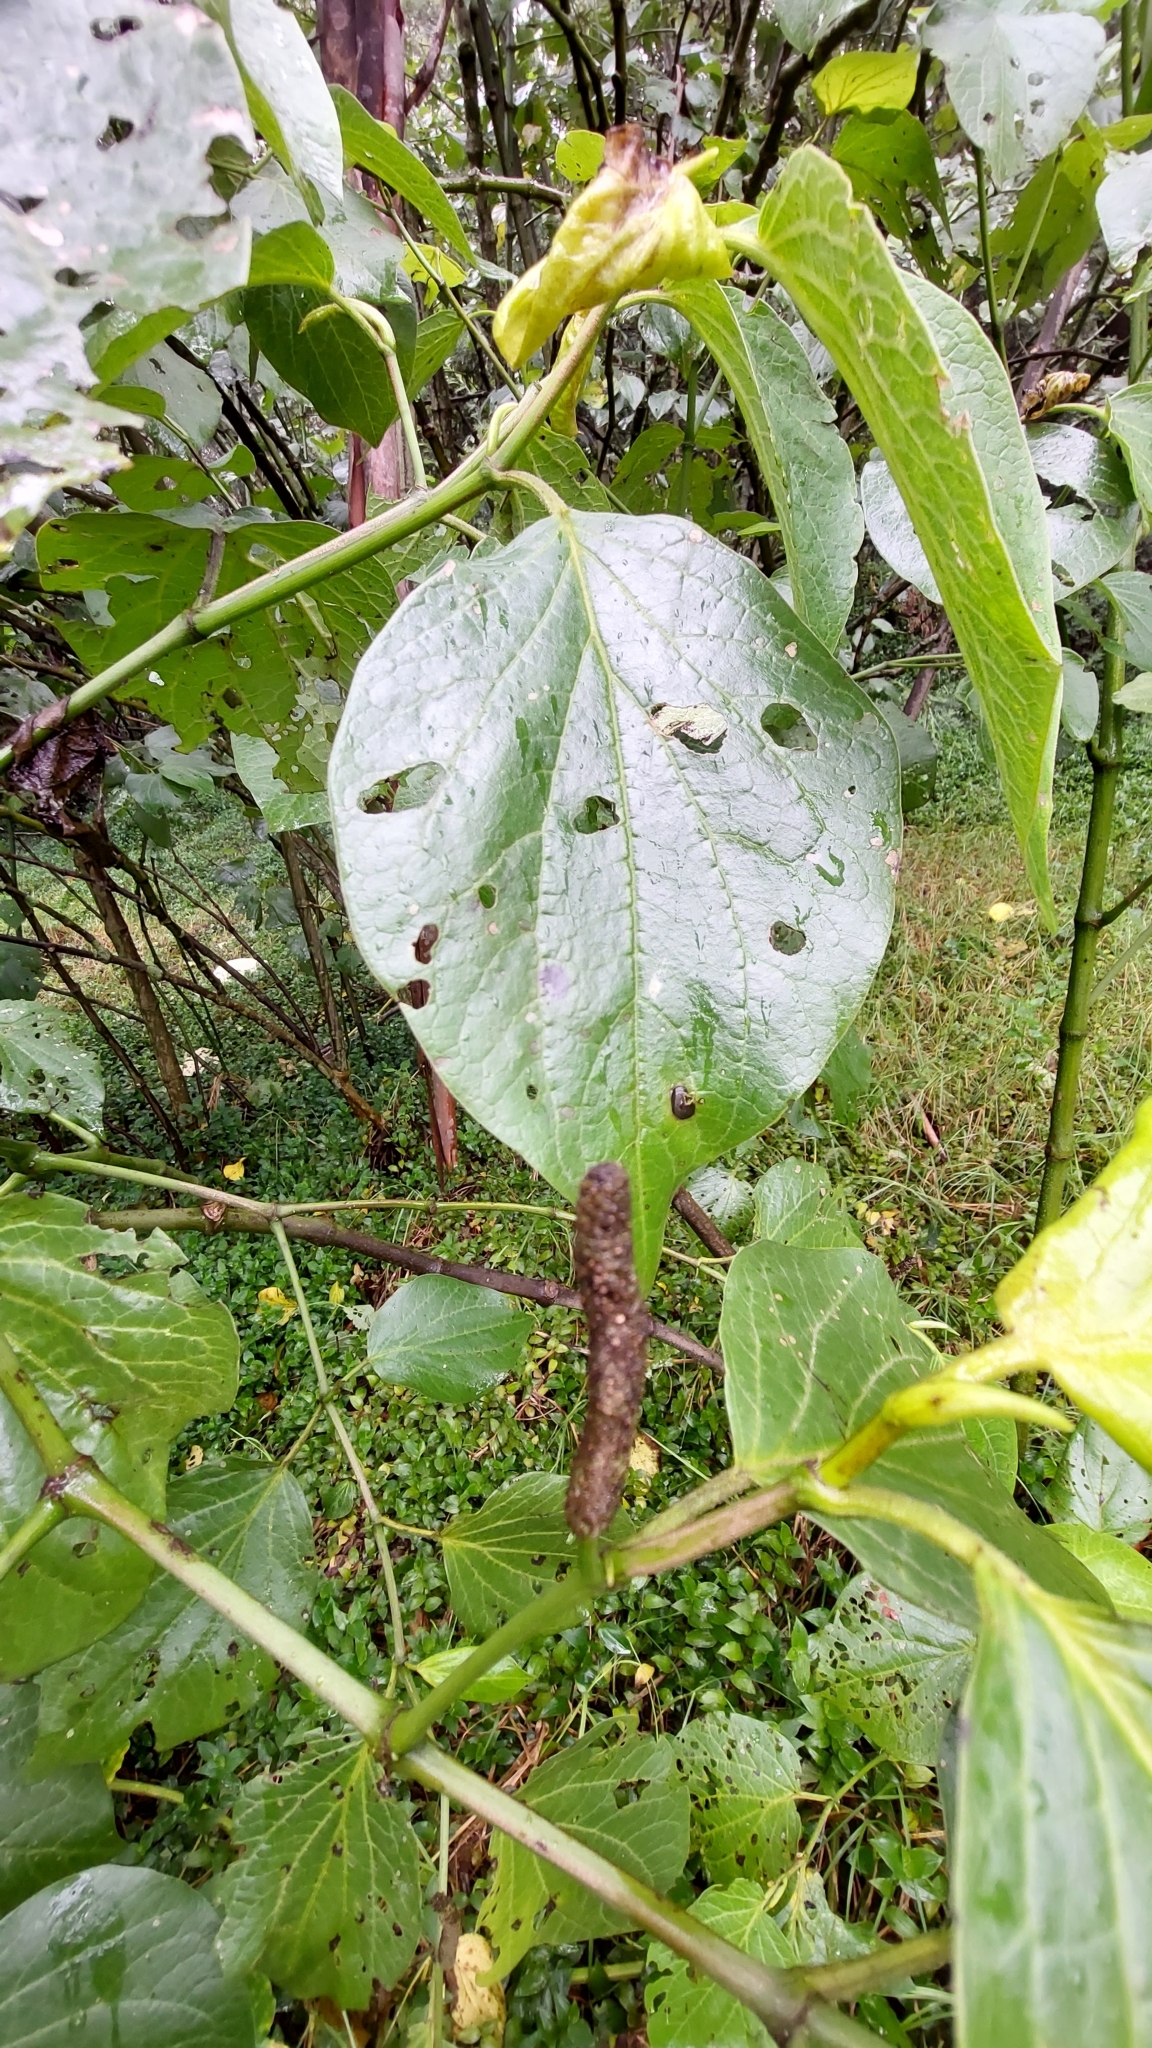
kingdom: Plantae
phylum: Tracheophyta
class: Magnoliopsida
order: Piperales
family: Piperaceae
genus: Piper
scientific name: Piper barbatum
